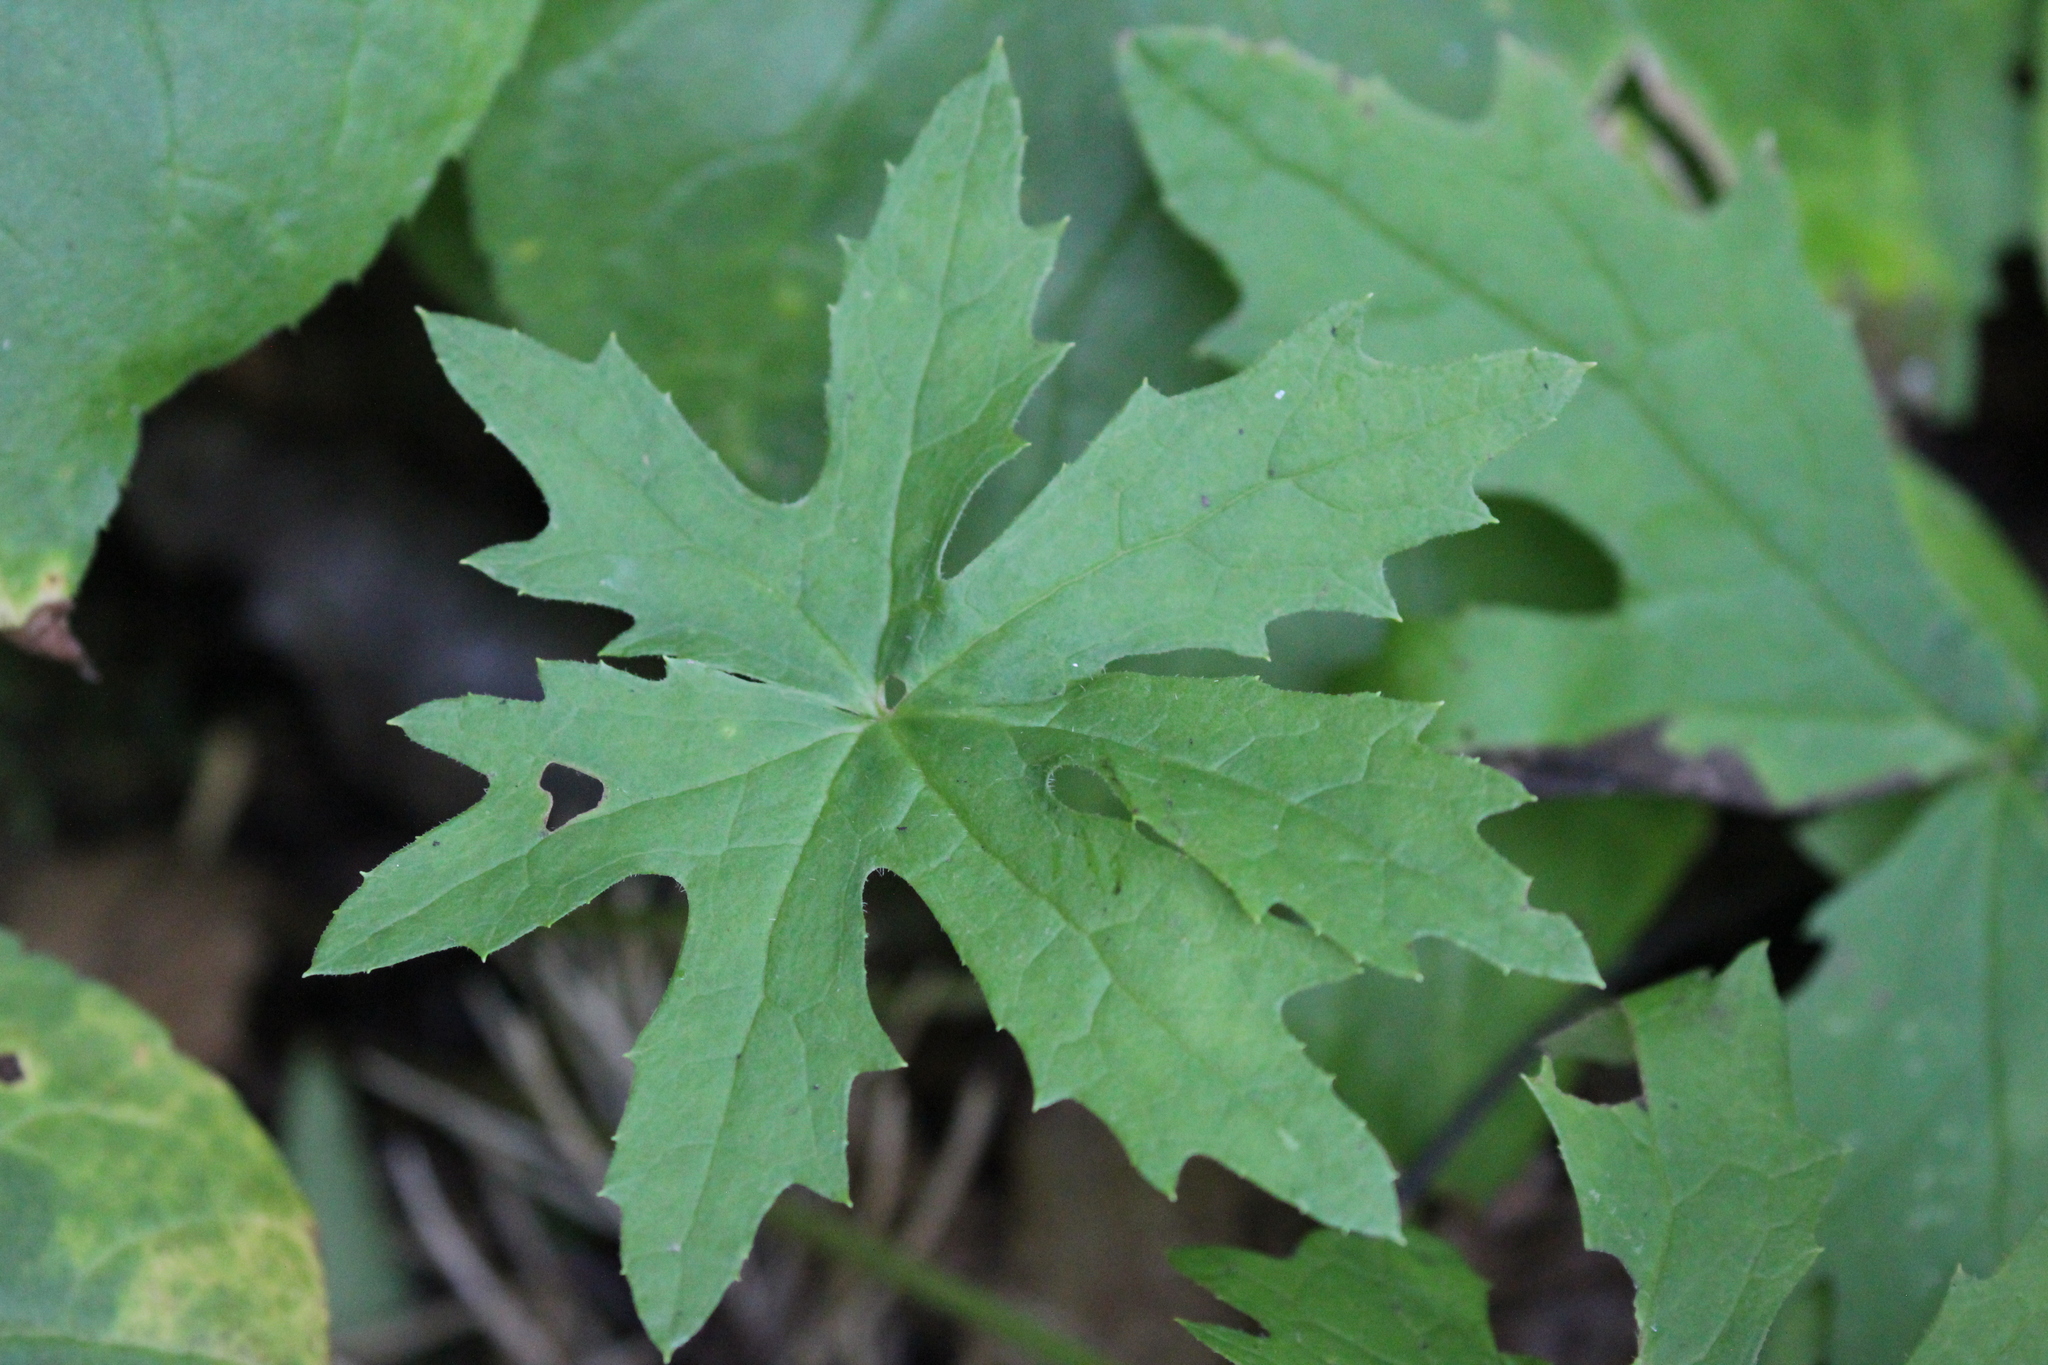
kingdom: Plantae
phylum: Tracheophyta
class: Magnoliopsida
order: Asterales
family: Asteraceae
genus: Petasites
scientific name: Petasites frigidus
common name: Arctic butterbur
